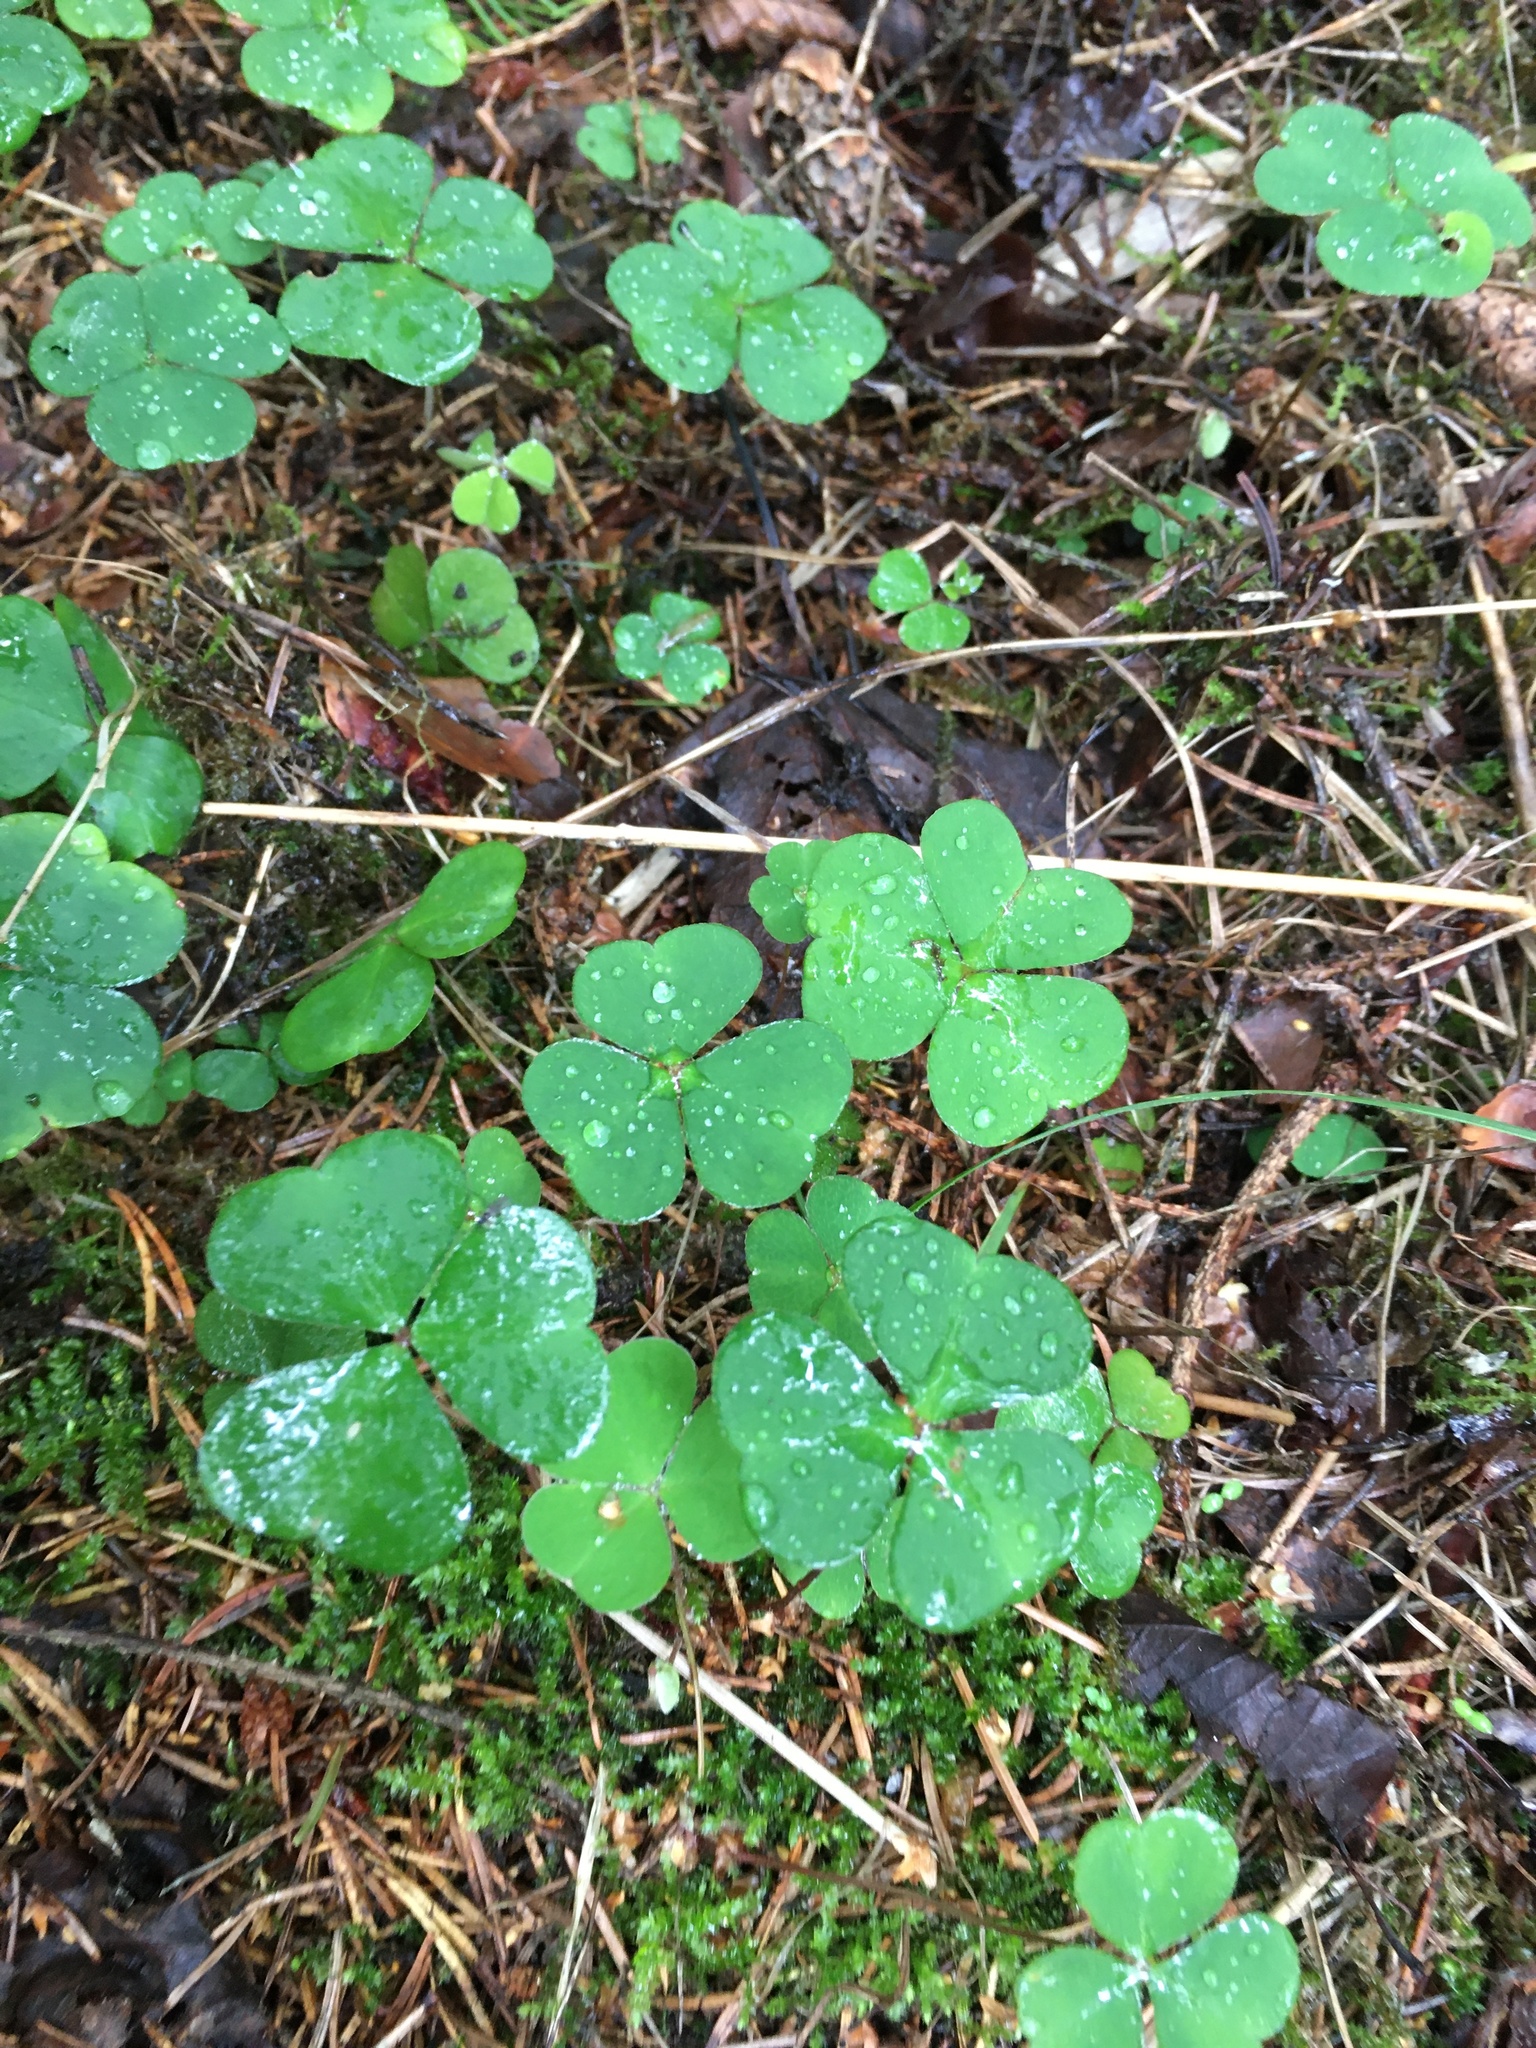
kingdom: Plantae
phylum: Tracheophyta
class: Magnoliopsida
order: Oxalidales
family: Oxalidaceae
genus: Oxalis
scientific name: Oxalis acetosella
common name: Wood-sorrel
